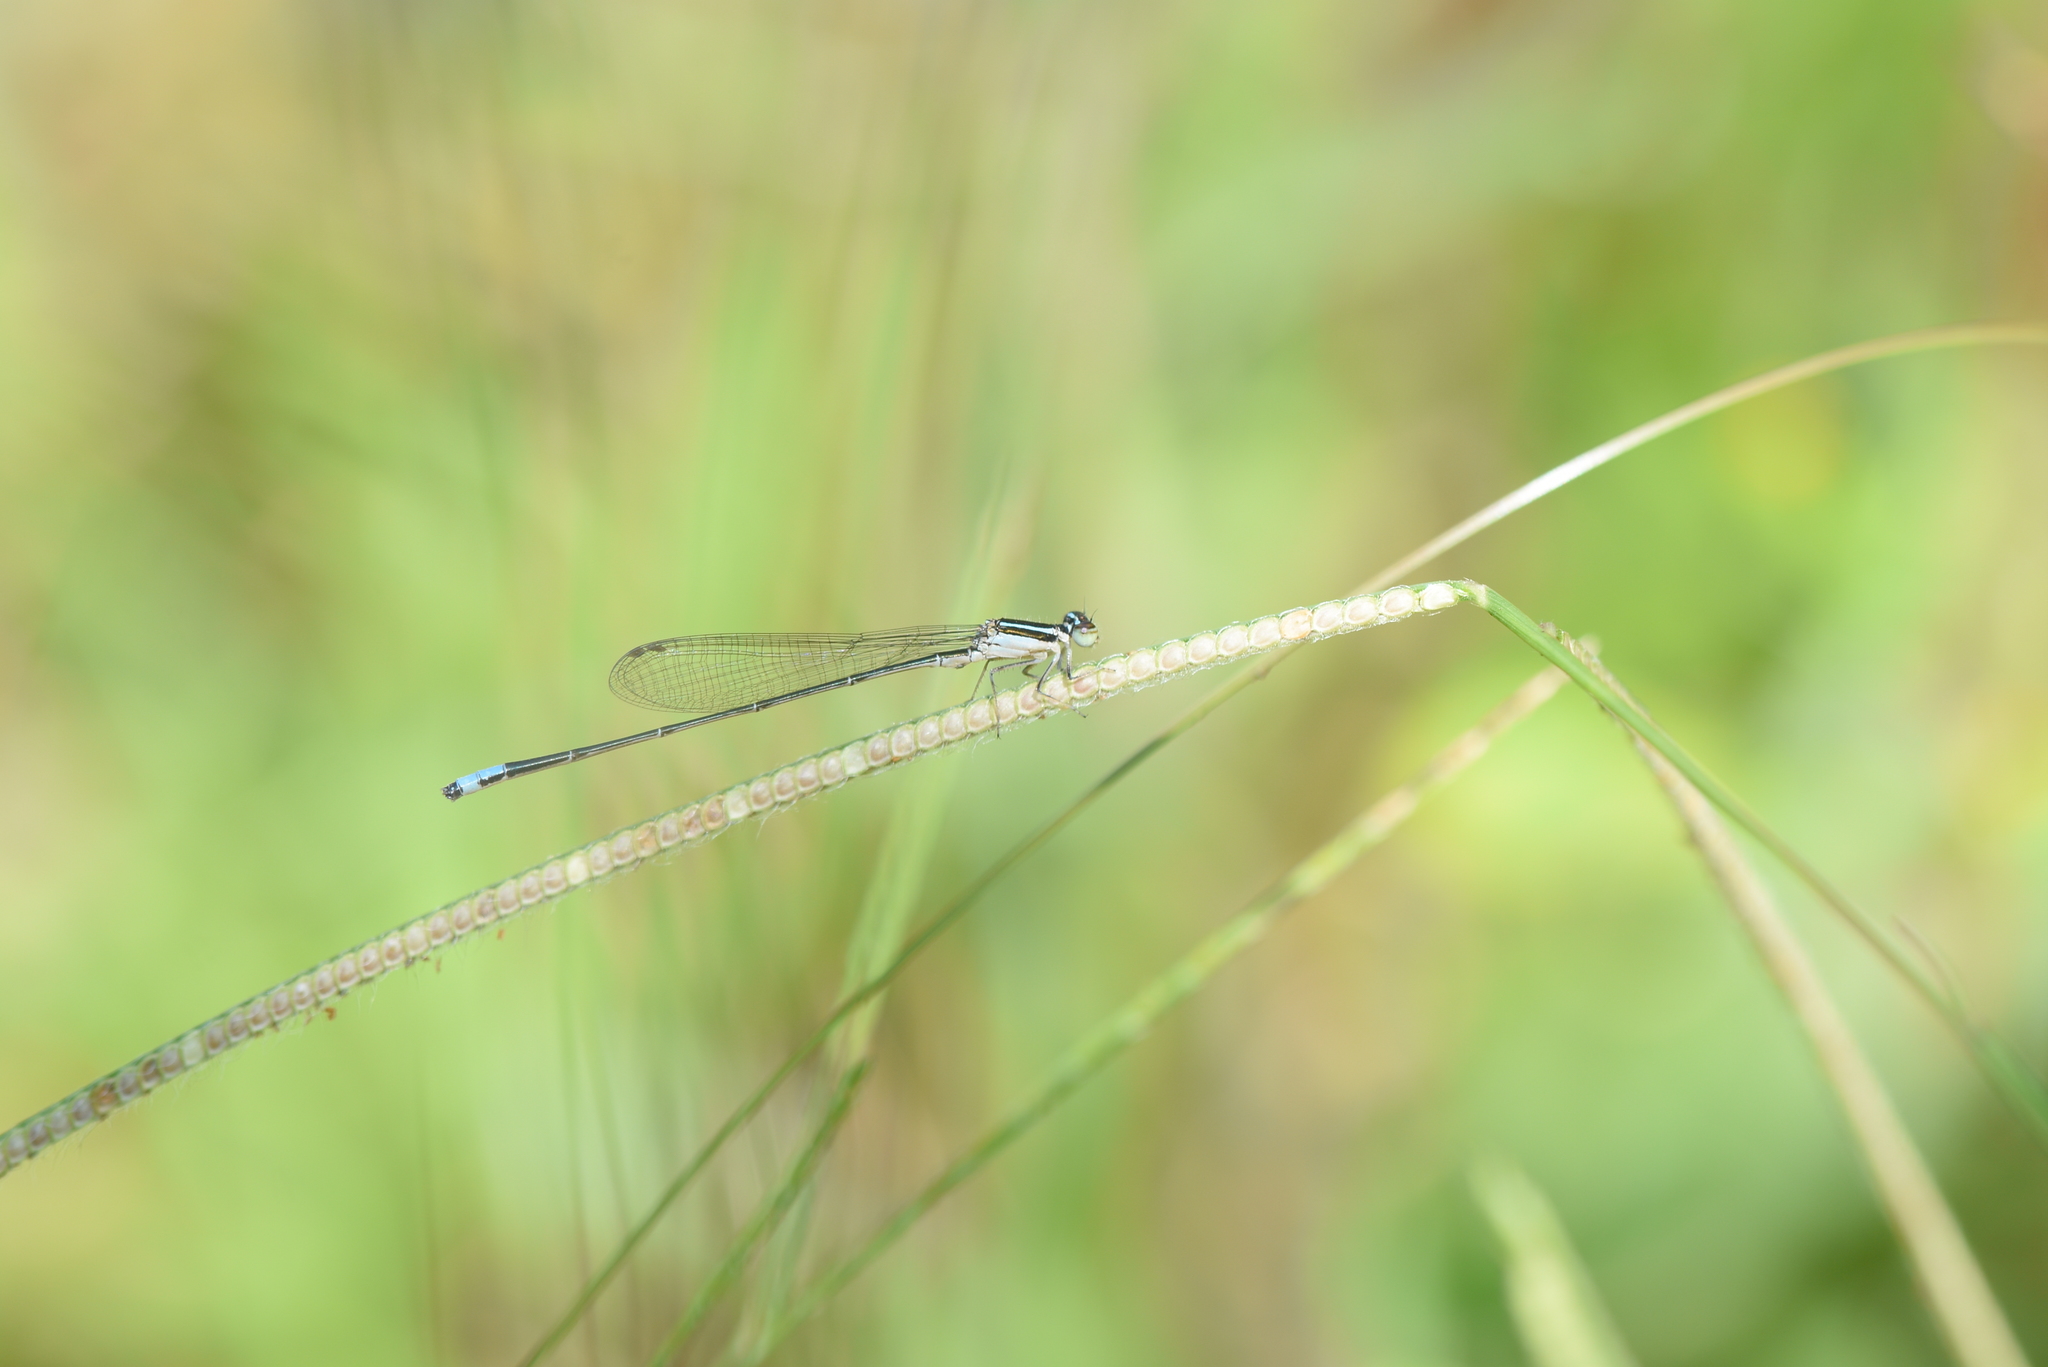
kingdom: Animalia
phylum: Arthropoda
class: Insecta
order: Odonata
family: Coenagrionidae
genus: Aciagrion
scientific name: Aciagrion occidentale
